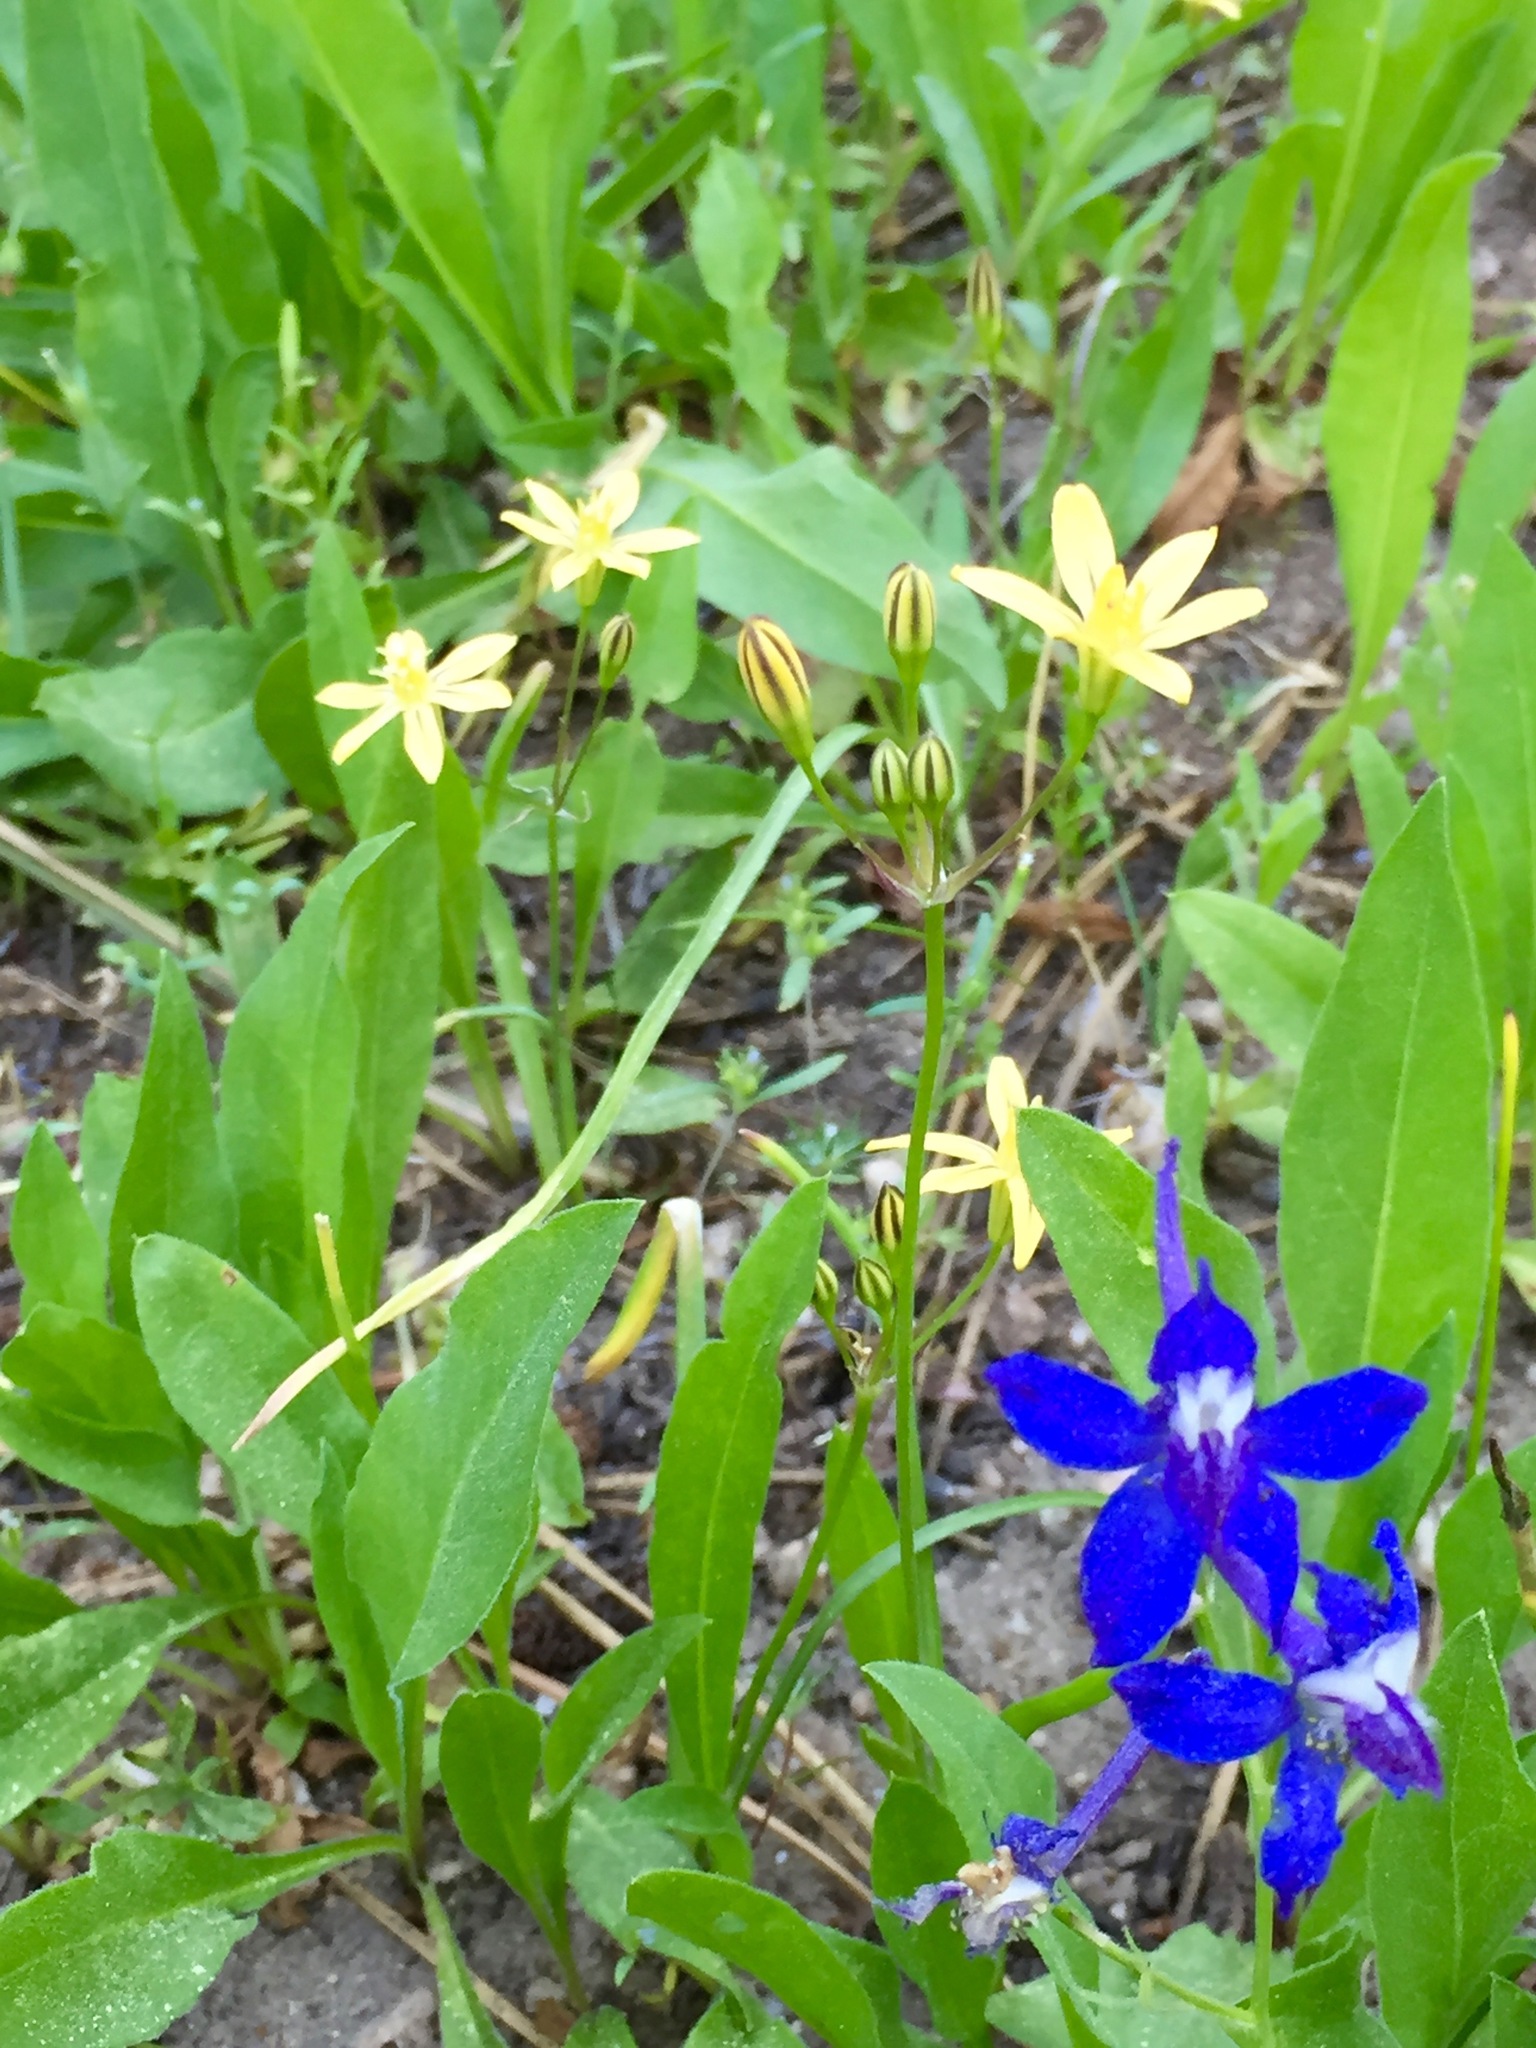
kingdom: Plantae
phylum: Tracheophyta
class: Liliopsida
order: Asparagales
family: Asparagaceae
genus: Triteleia
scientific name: Triteleia ixioides
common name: Yellow-brodiaea
